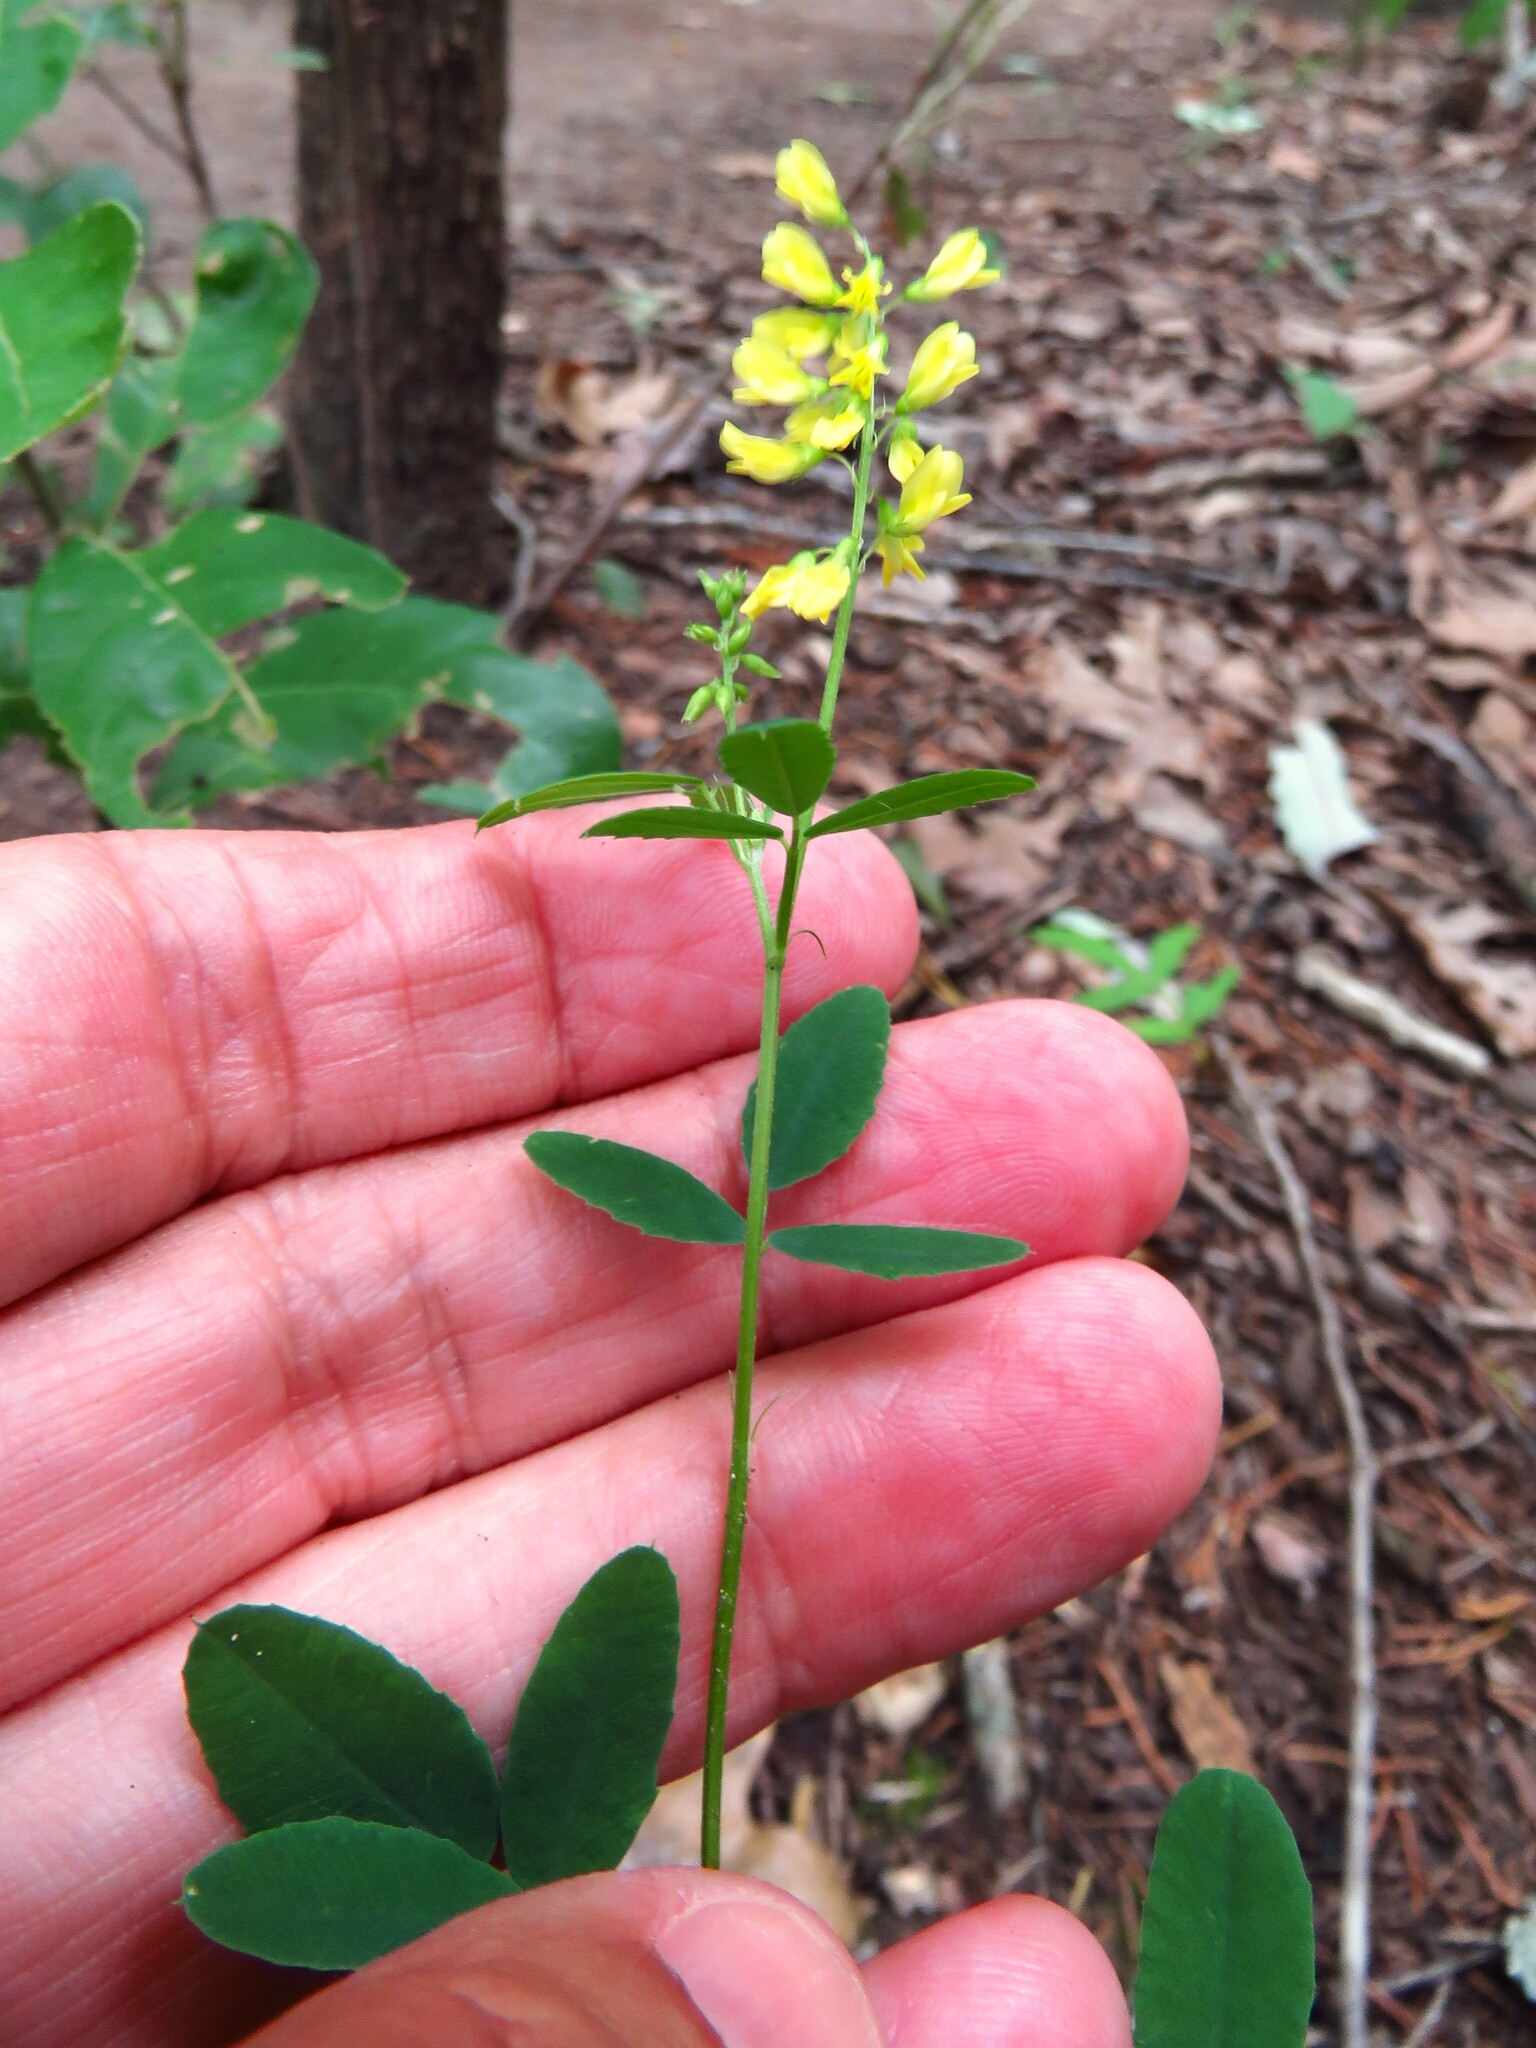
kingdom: Plantae
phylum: Tracheophyta
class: Magnoliopsida
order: Fabales
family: Fabaceae
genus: Melilotus
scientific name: Melilotus officinalis
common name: Sweetclover
